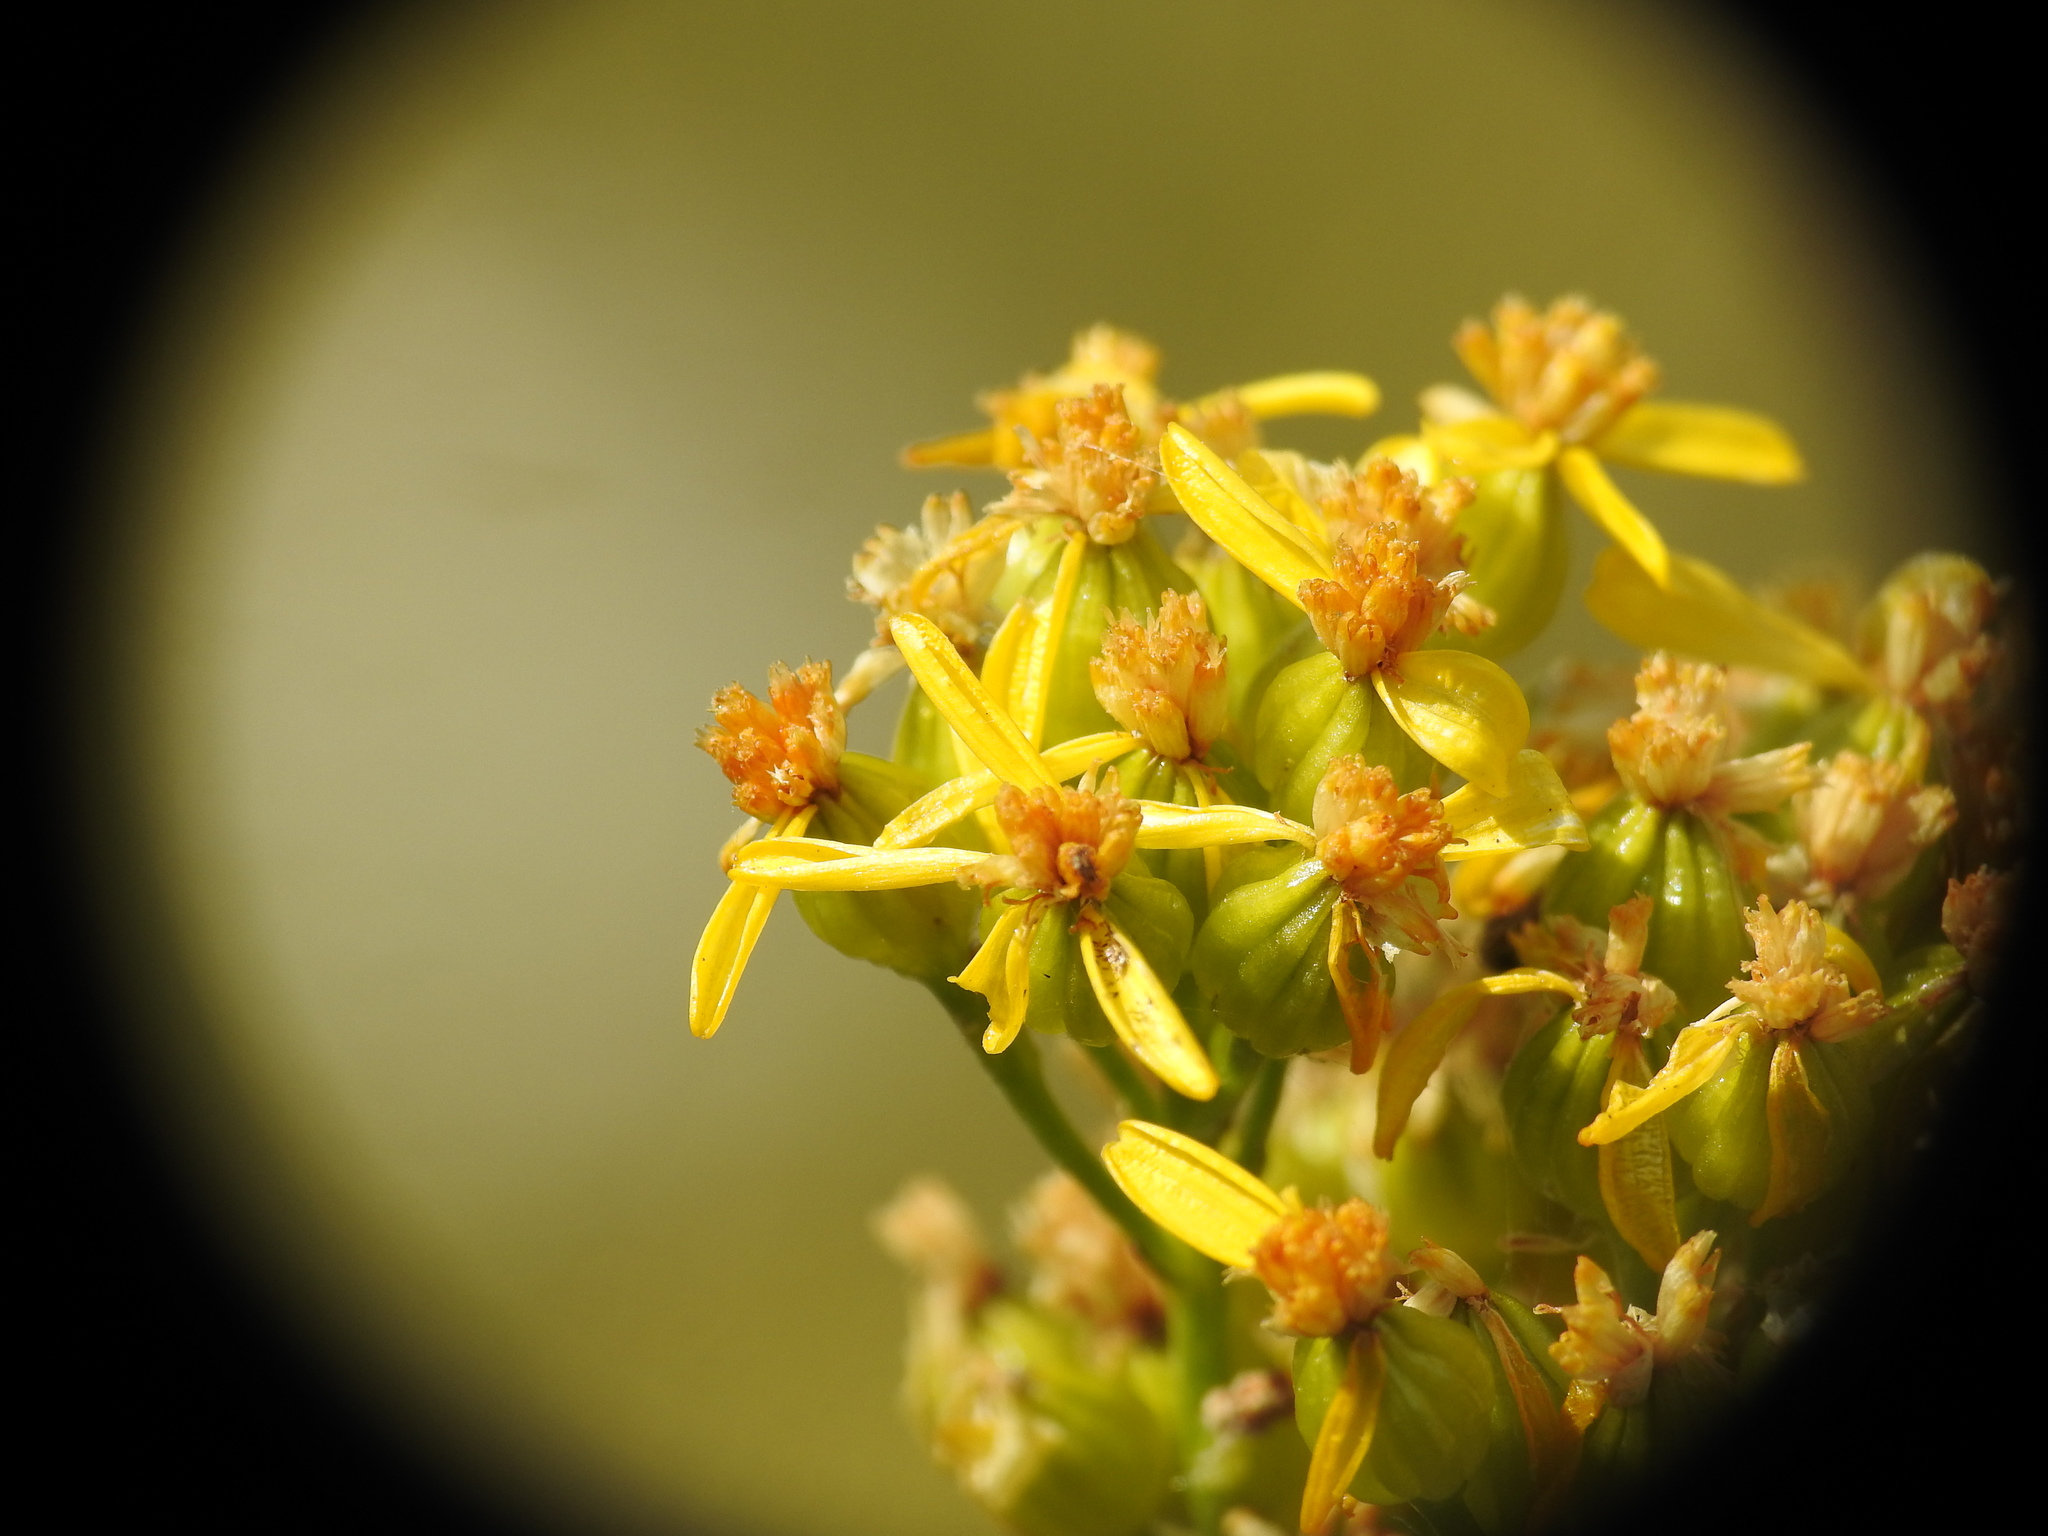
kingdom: Plantae
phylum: Tracheophyta
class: Magnoliopsida
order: Asterales
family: Asteraceae
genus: Jacobaea
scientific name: Jacobaea adonidifolia
